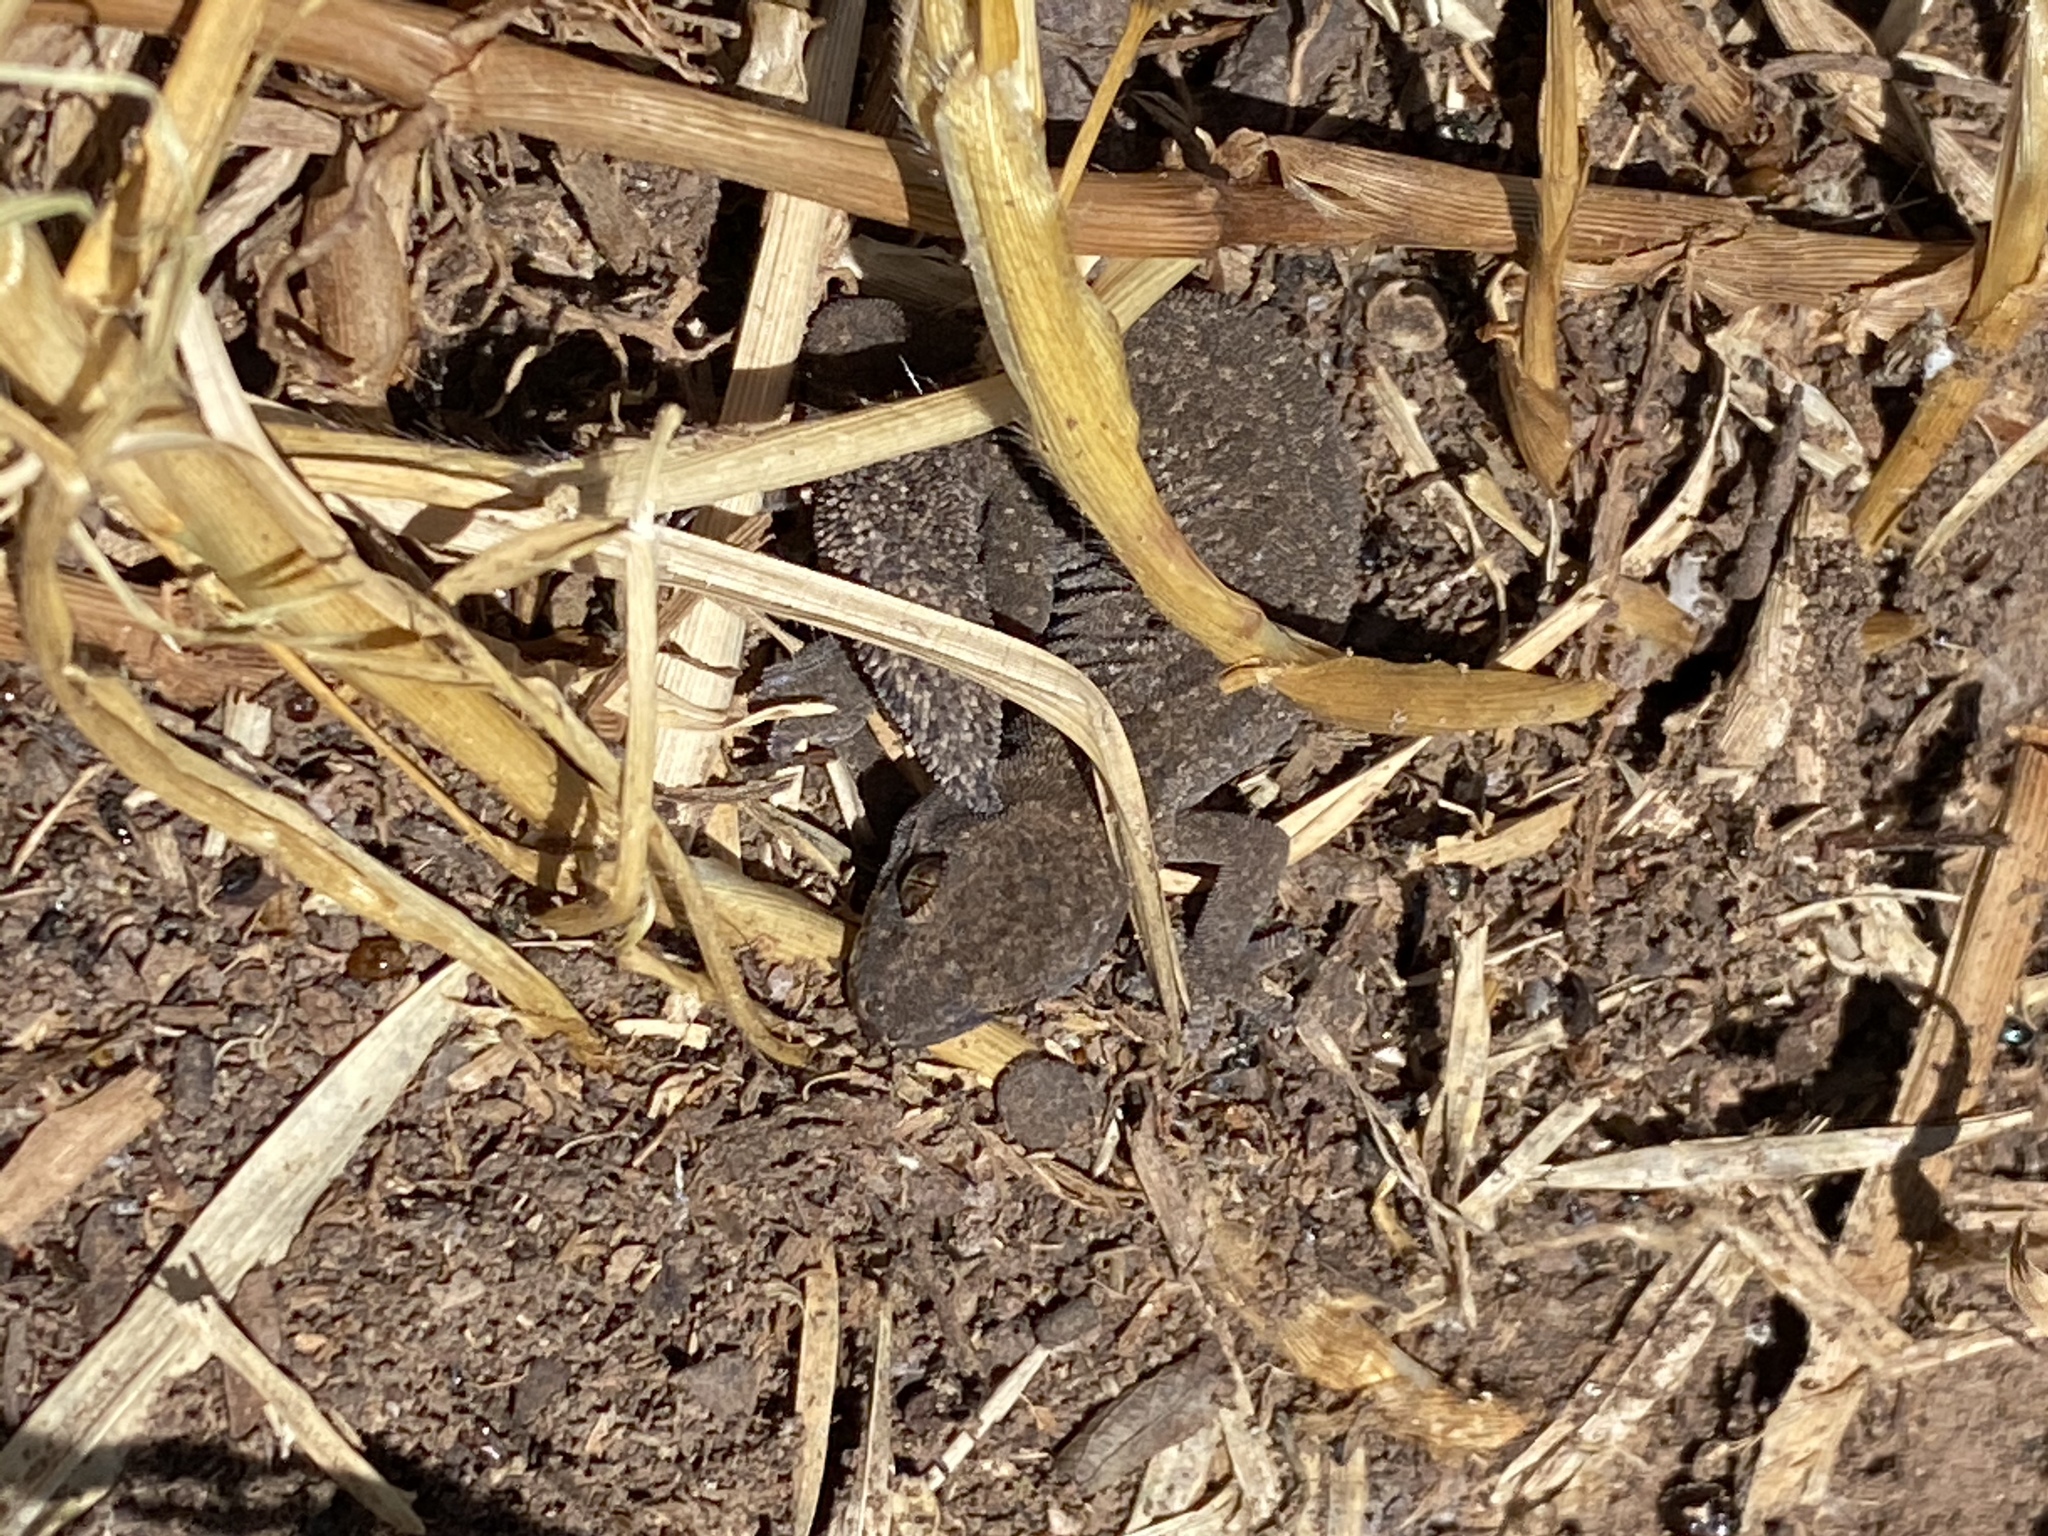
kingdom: Animalia
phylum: Chordata
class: Squamata
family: Gekkonidae
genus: Pachydactylus
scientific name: Pachydactylus maculatus
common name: Spotted thick-toed gecko
